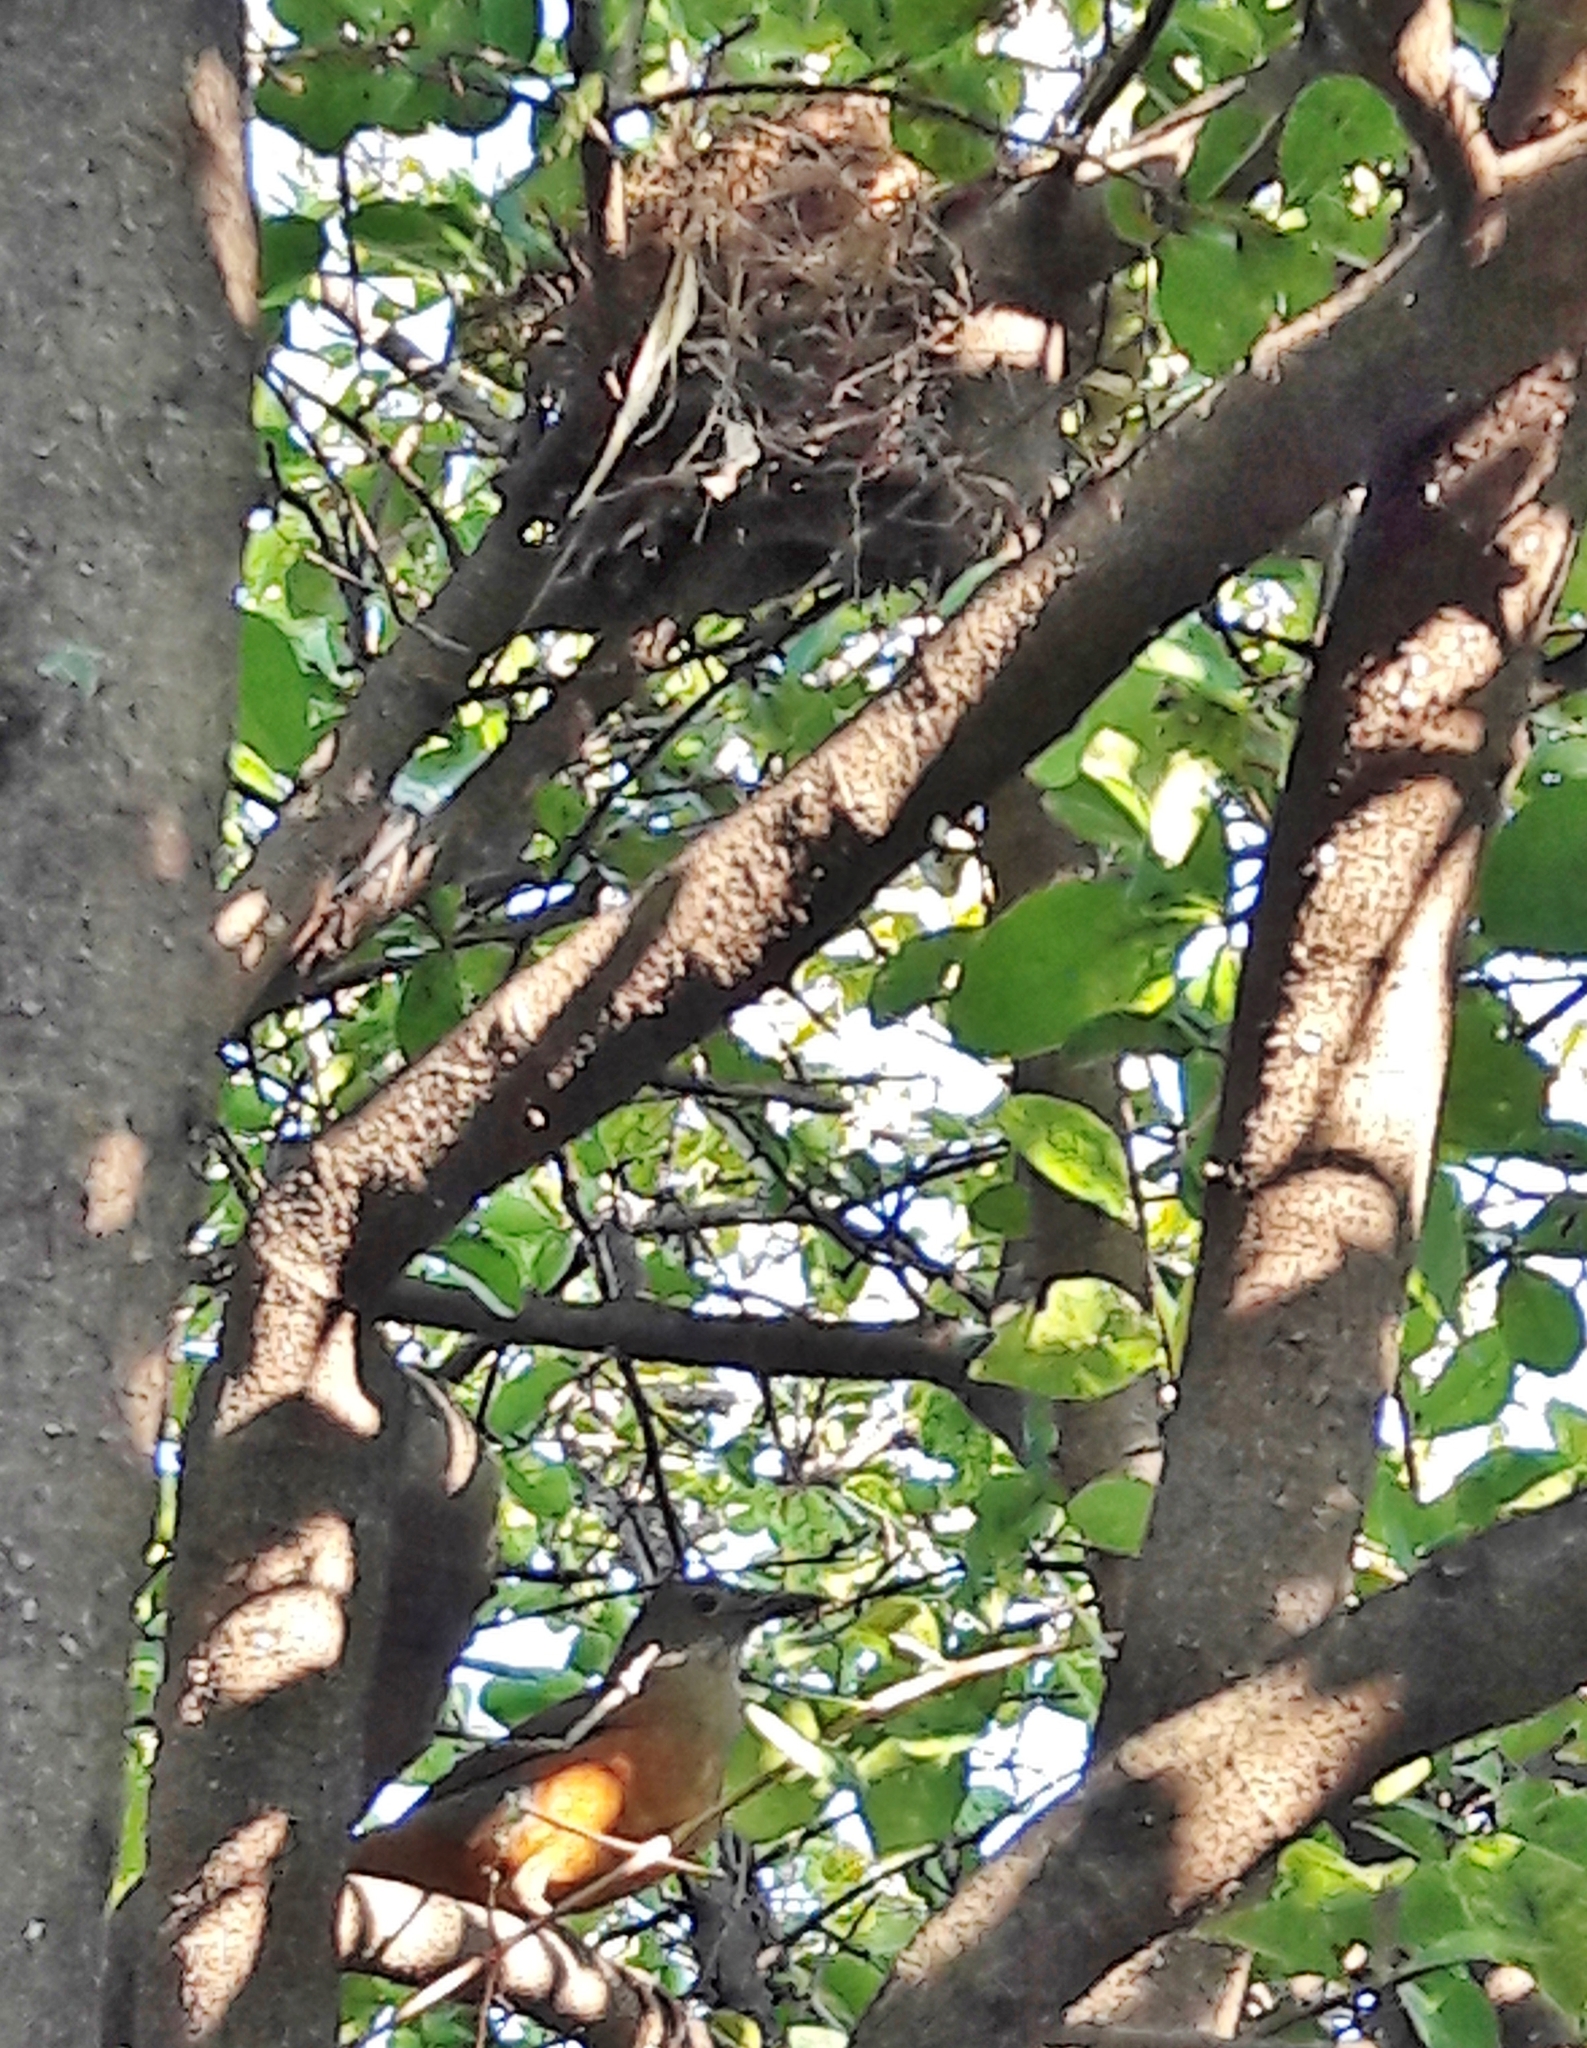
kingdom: Animalia
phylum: Chordata
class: Aves
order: Passeriformes
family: Turdidae
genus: Turdus
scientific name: Turdus rufiventris
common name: Rufous-bellied thrush
